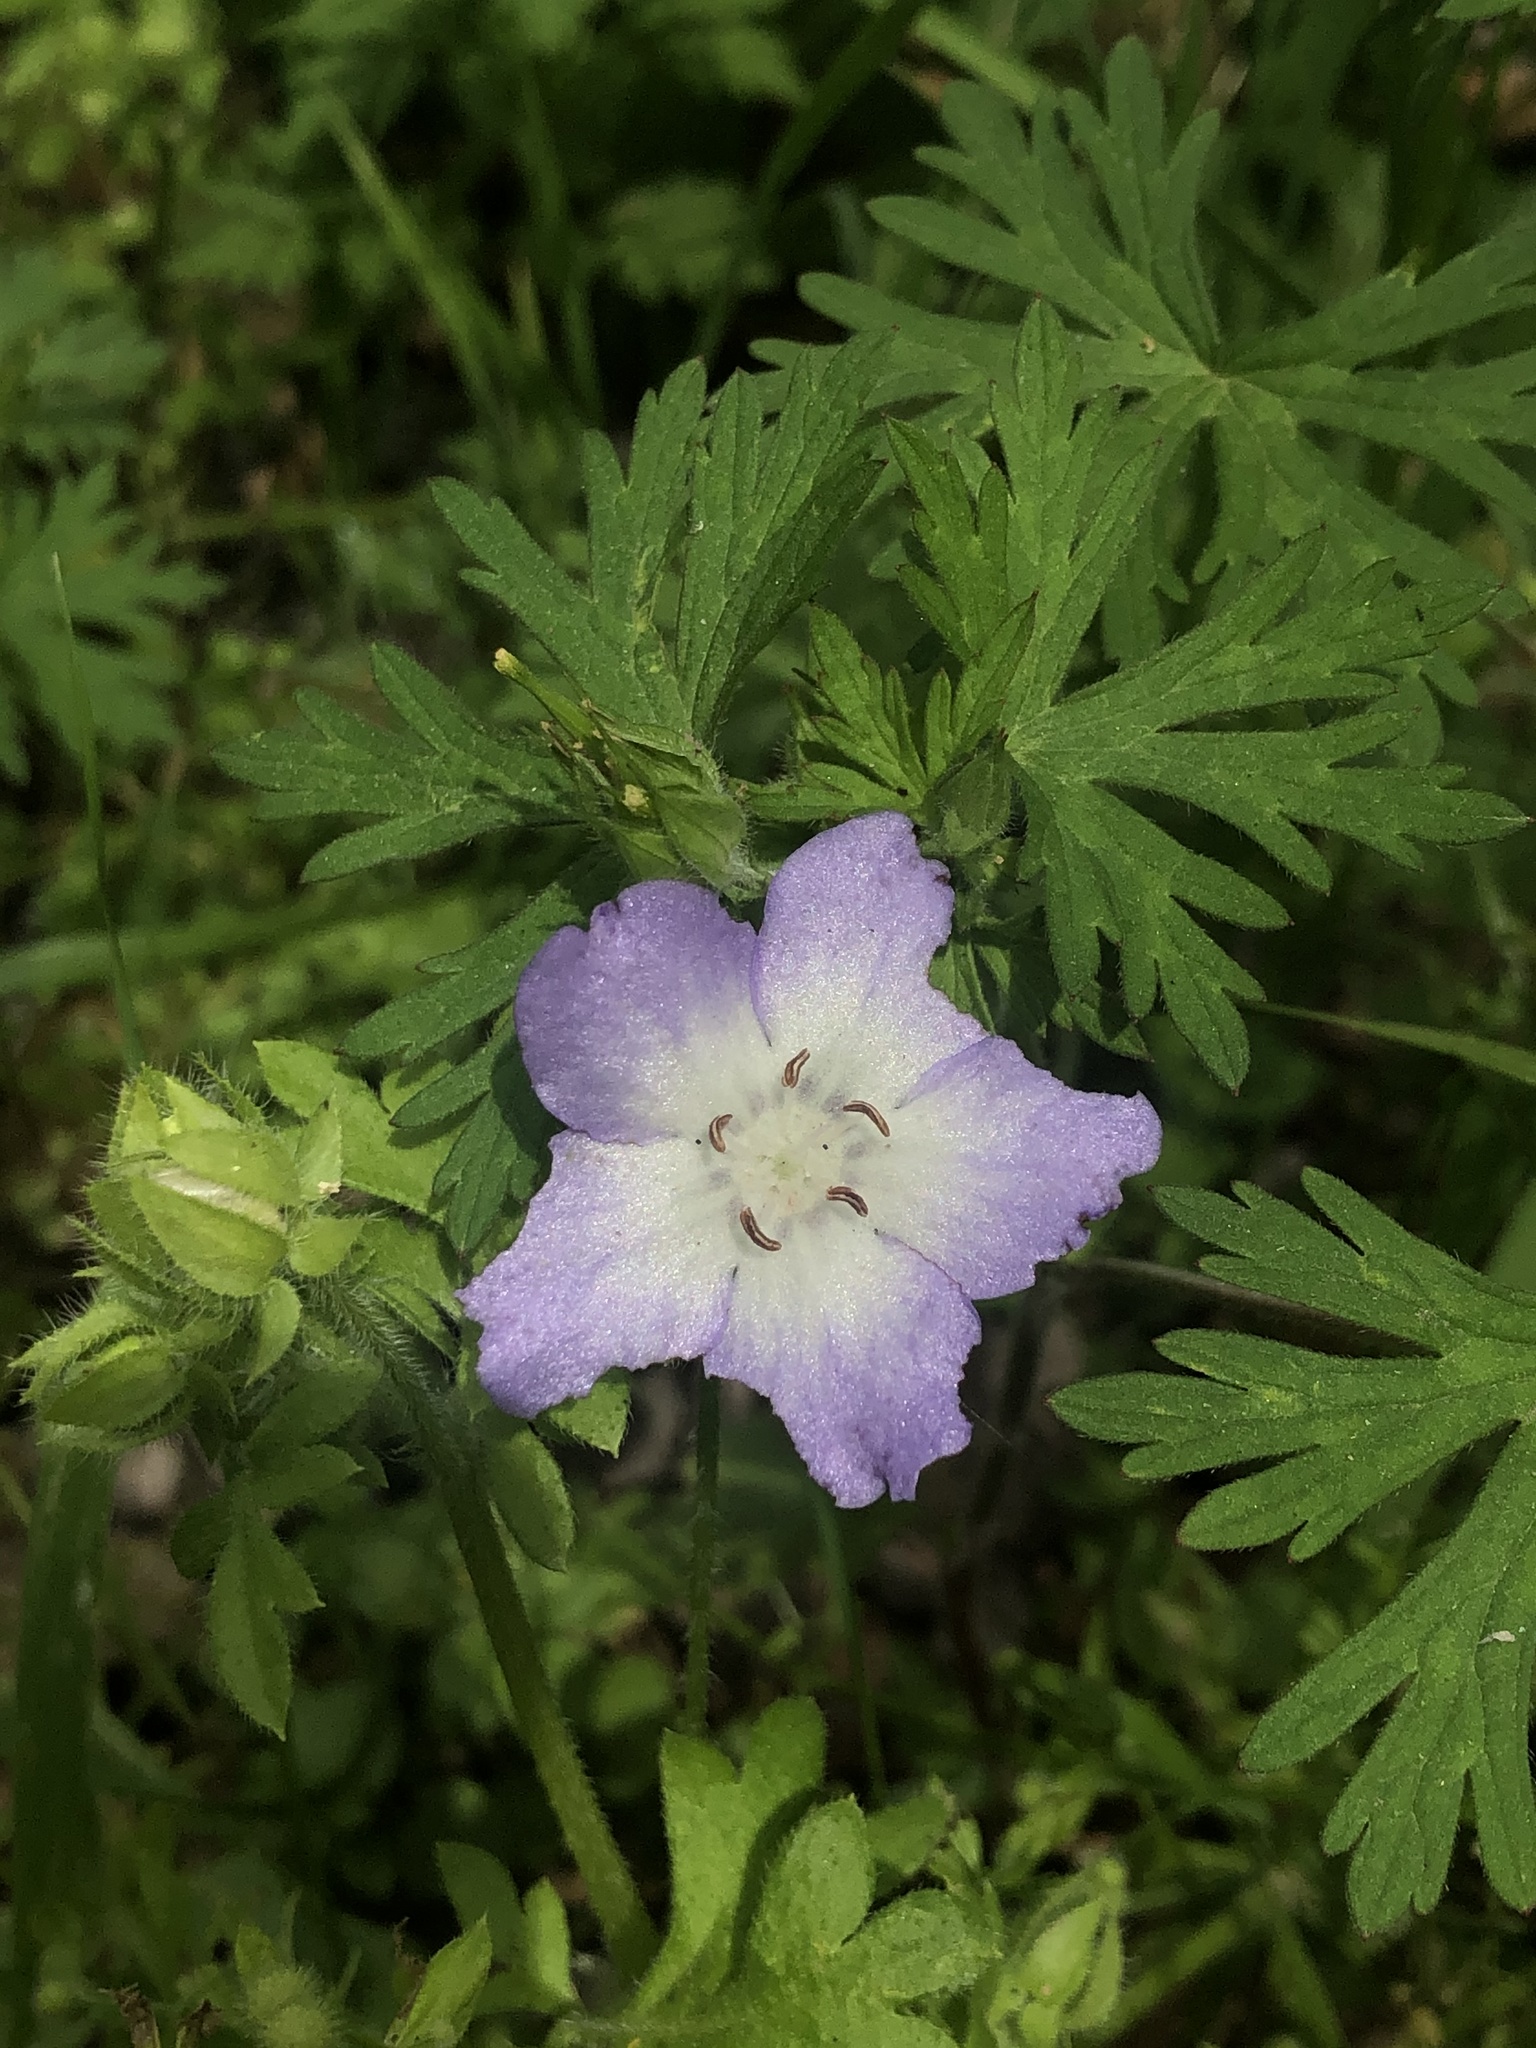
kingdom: Plantae
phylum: Tracheophyta
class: Magnoliopsida
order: Boraginales
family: Hydrophyllaceae
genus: Nemophila
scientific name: Nemophila phacelioides
